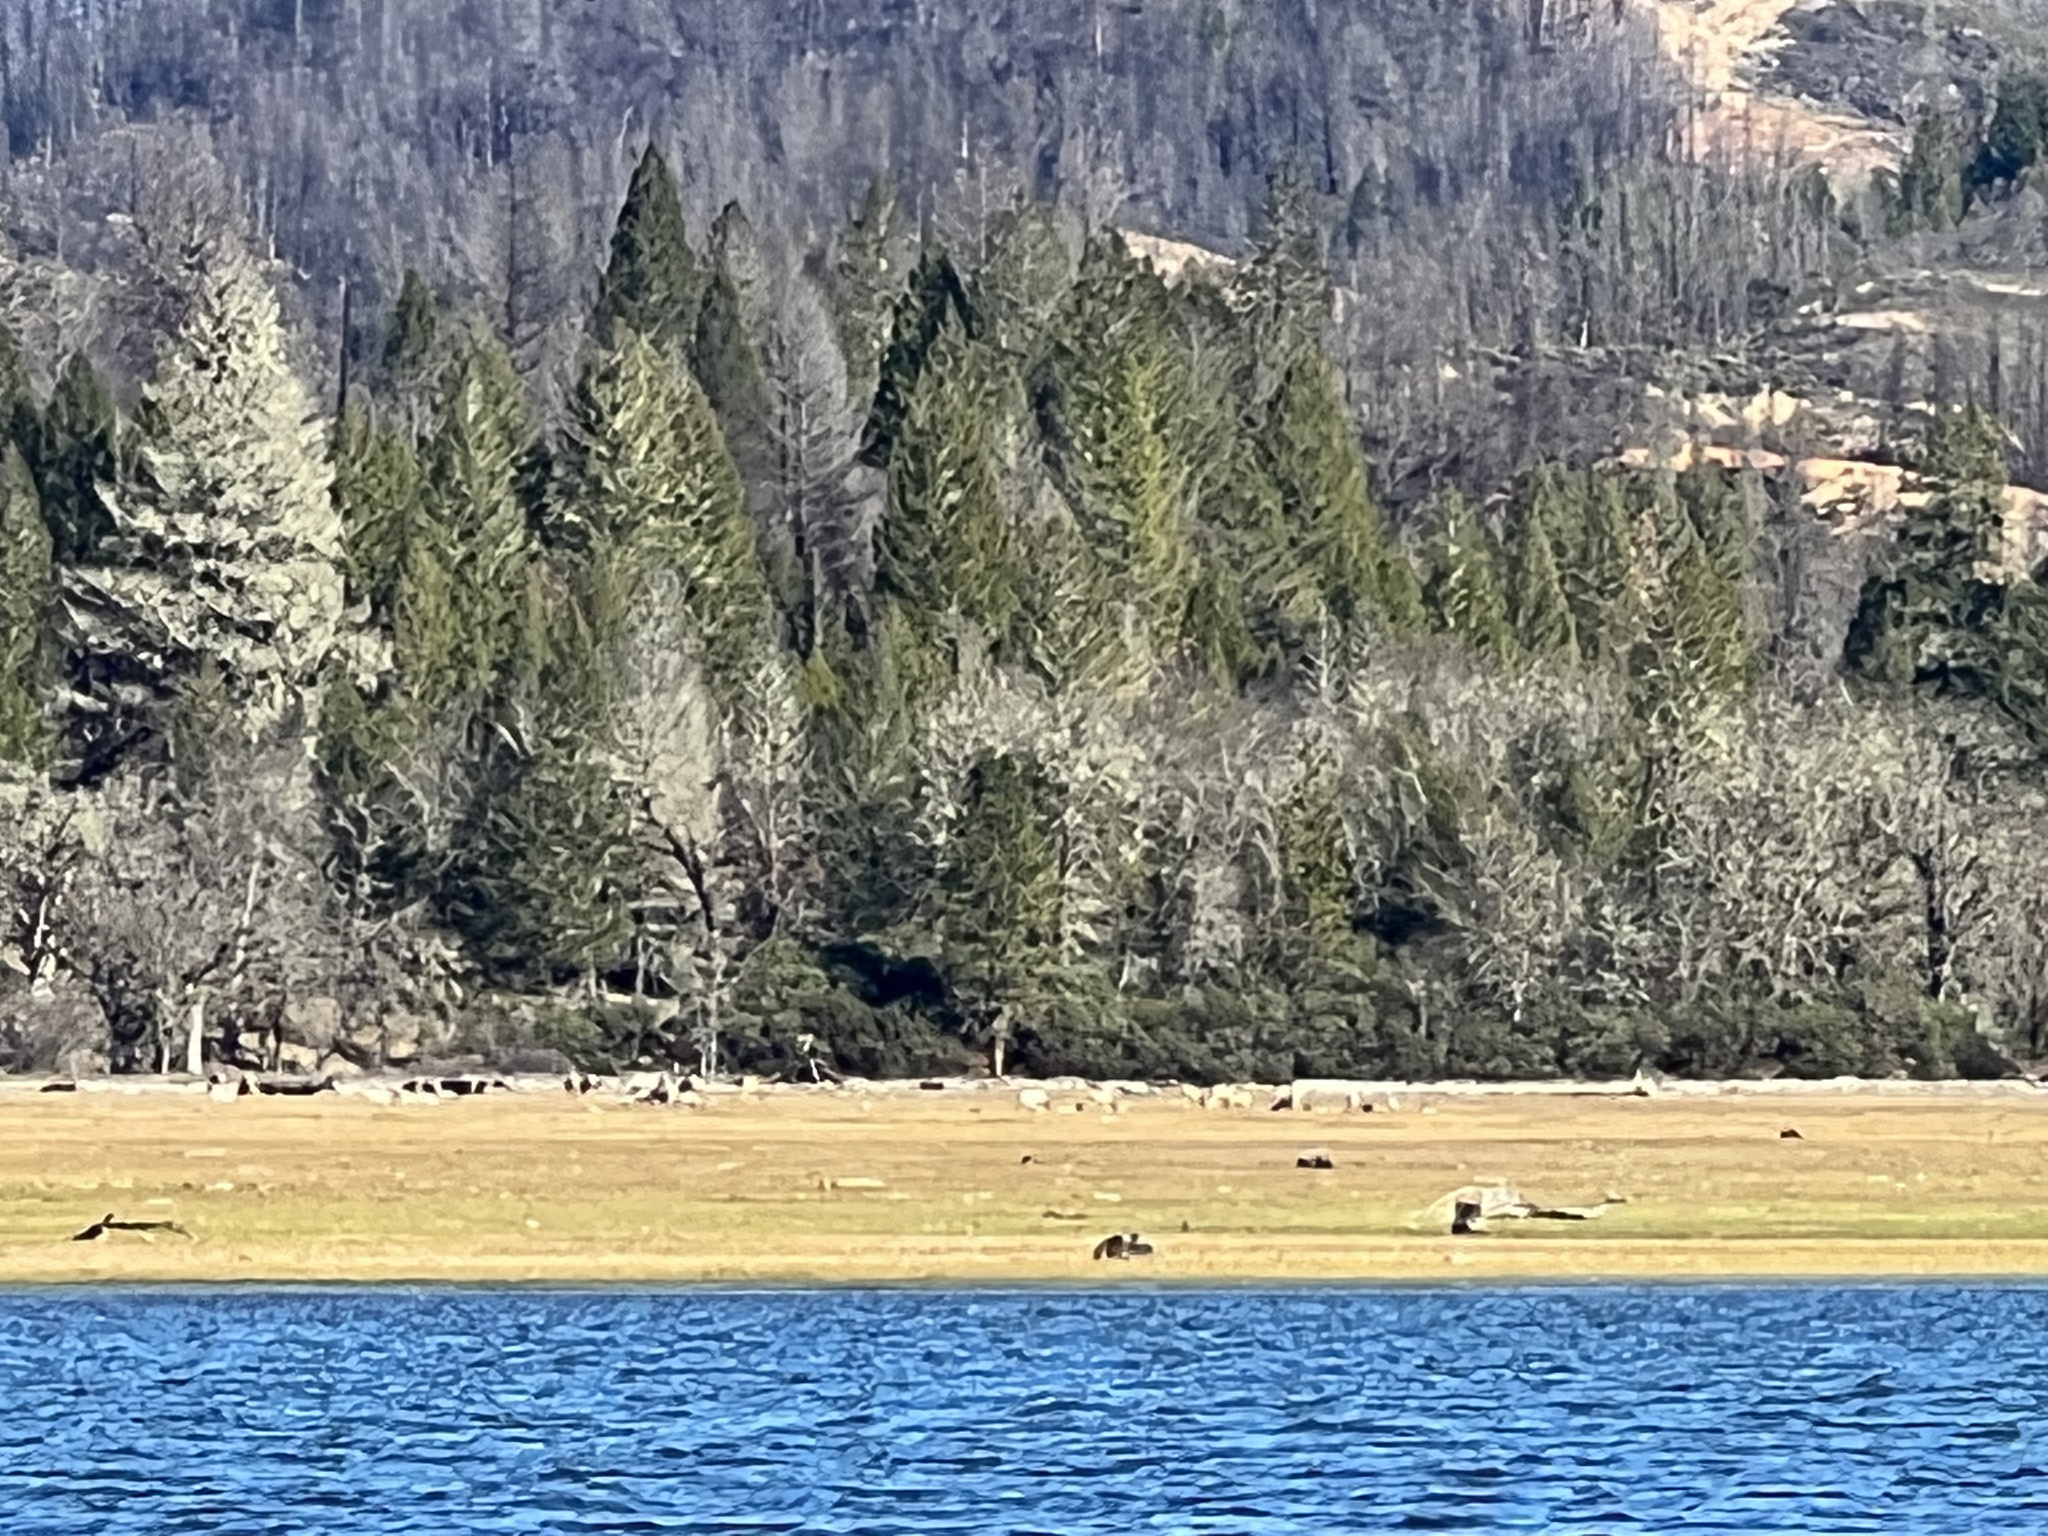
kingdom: Animalia
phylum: Chordata
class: Mammalia
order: Artiodactyla
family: Cervidae
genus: Cervus
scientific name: Cervus elaphus
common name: Red deer
